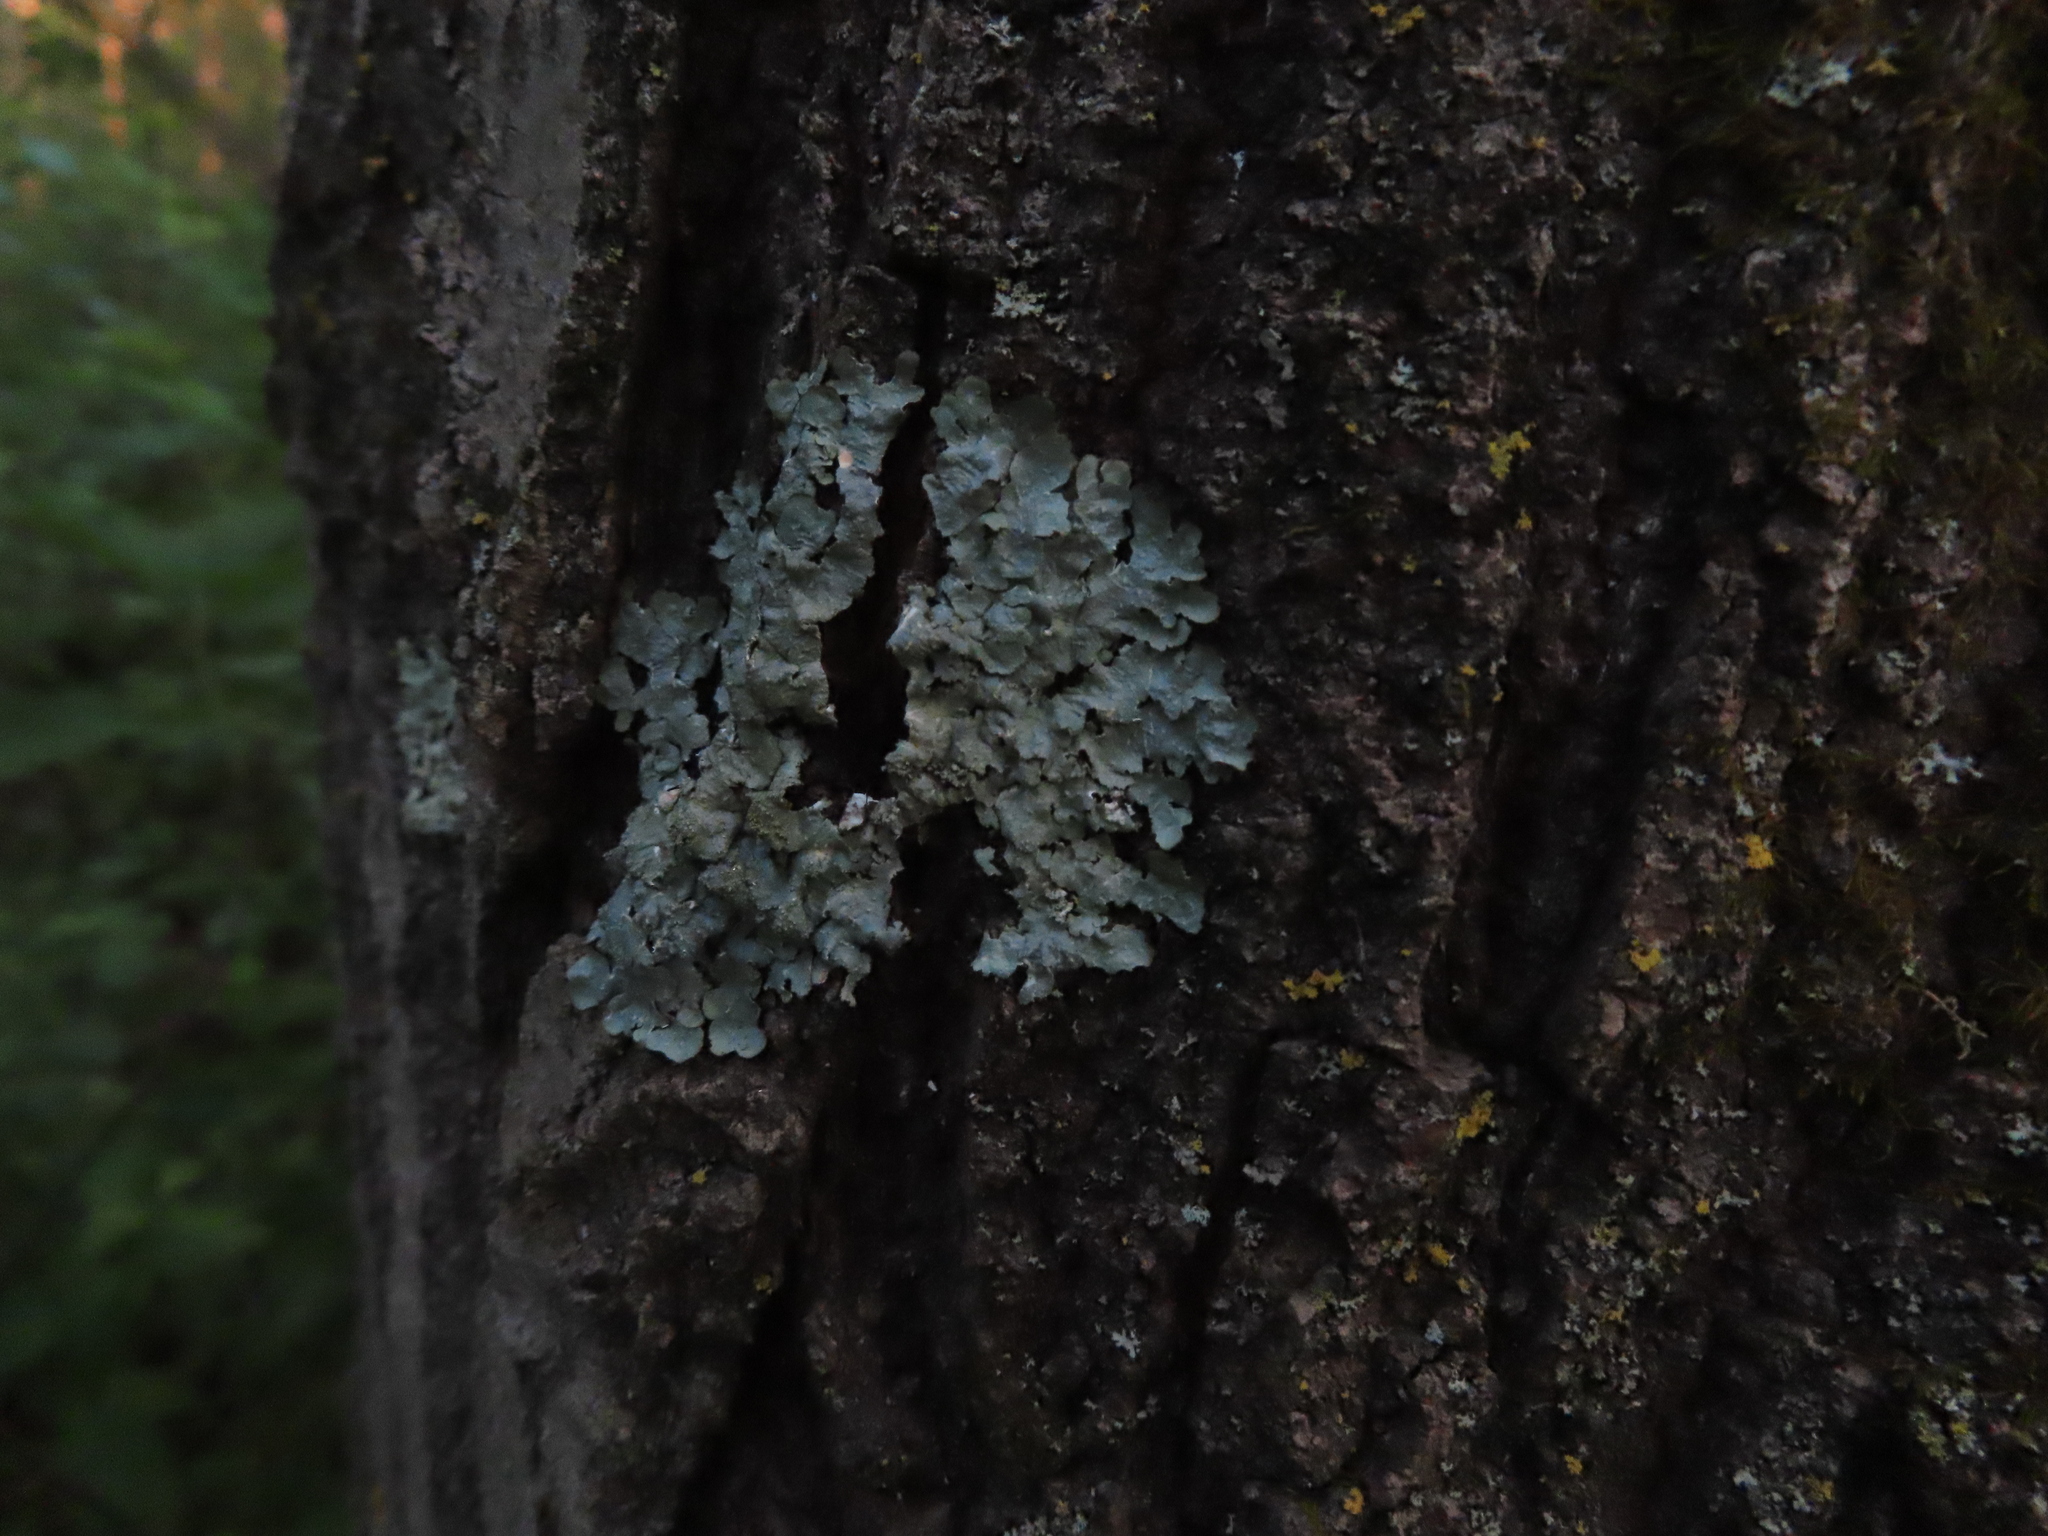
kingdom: Fungi
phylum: Ascomycota
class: Lecanoromycetes
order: Lecanorales
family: Parmeliaceae
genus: Punctelia
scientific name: Punctelia rudecta
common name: Rough speckled shield lichen
